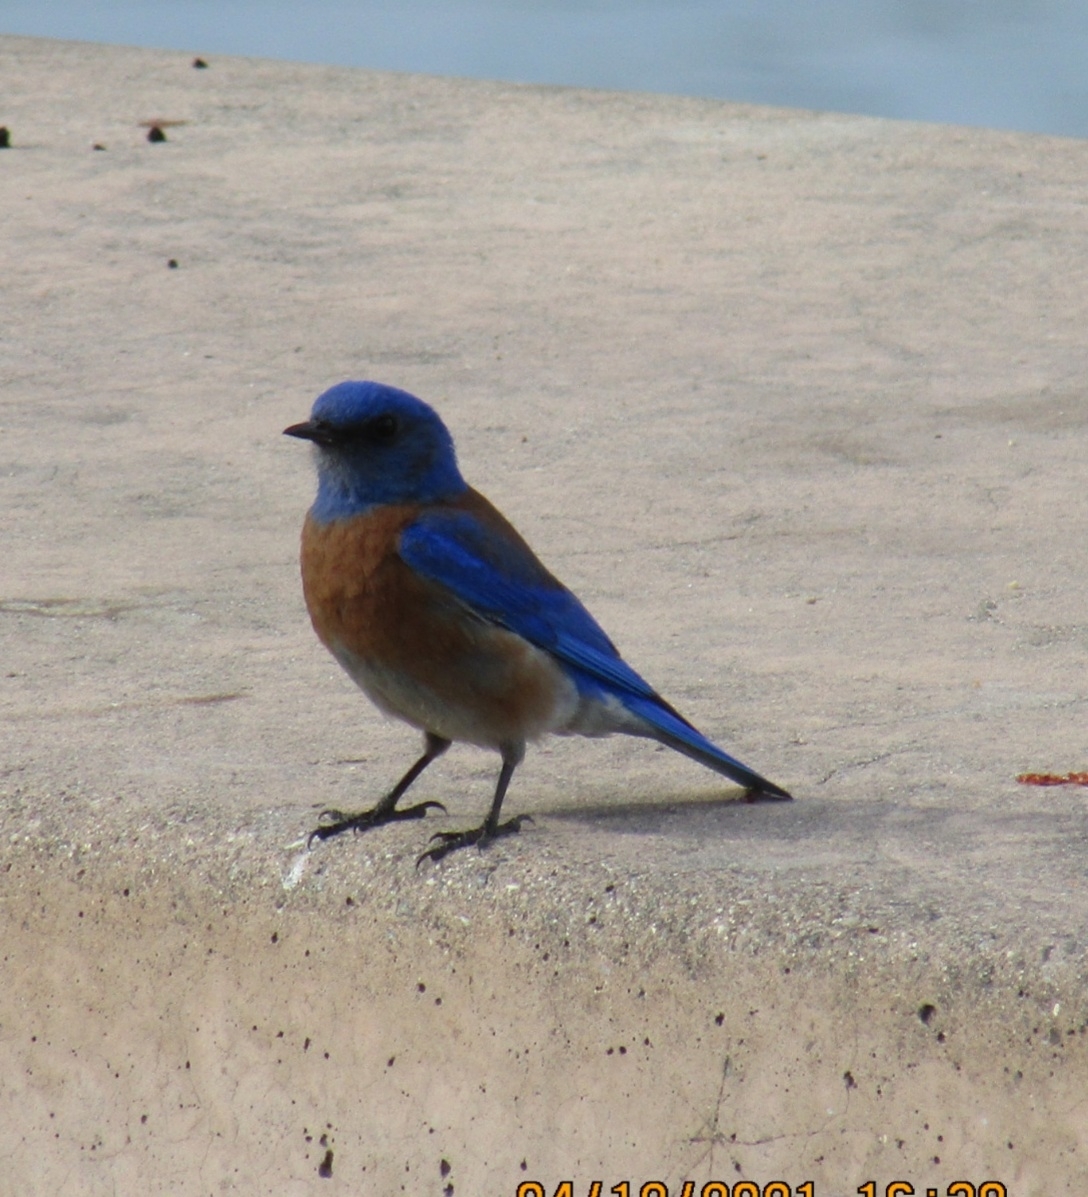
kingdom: Animalia
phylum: Chordata
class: Aves
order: Passeriformes
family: Turdidae
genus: Sialia
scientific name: Sialia mexicana
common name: Western bluebird
